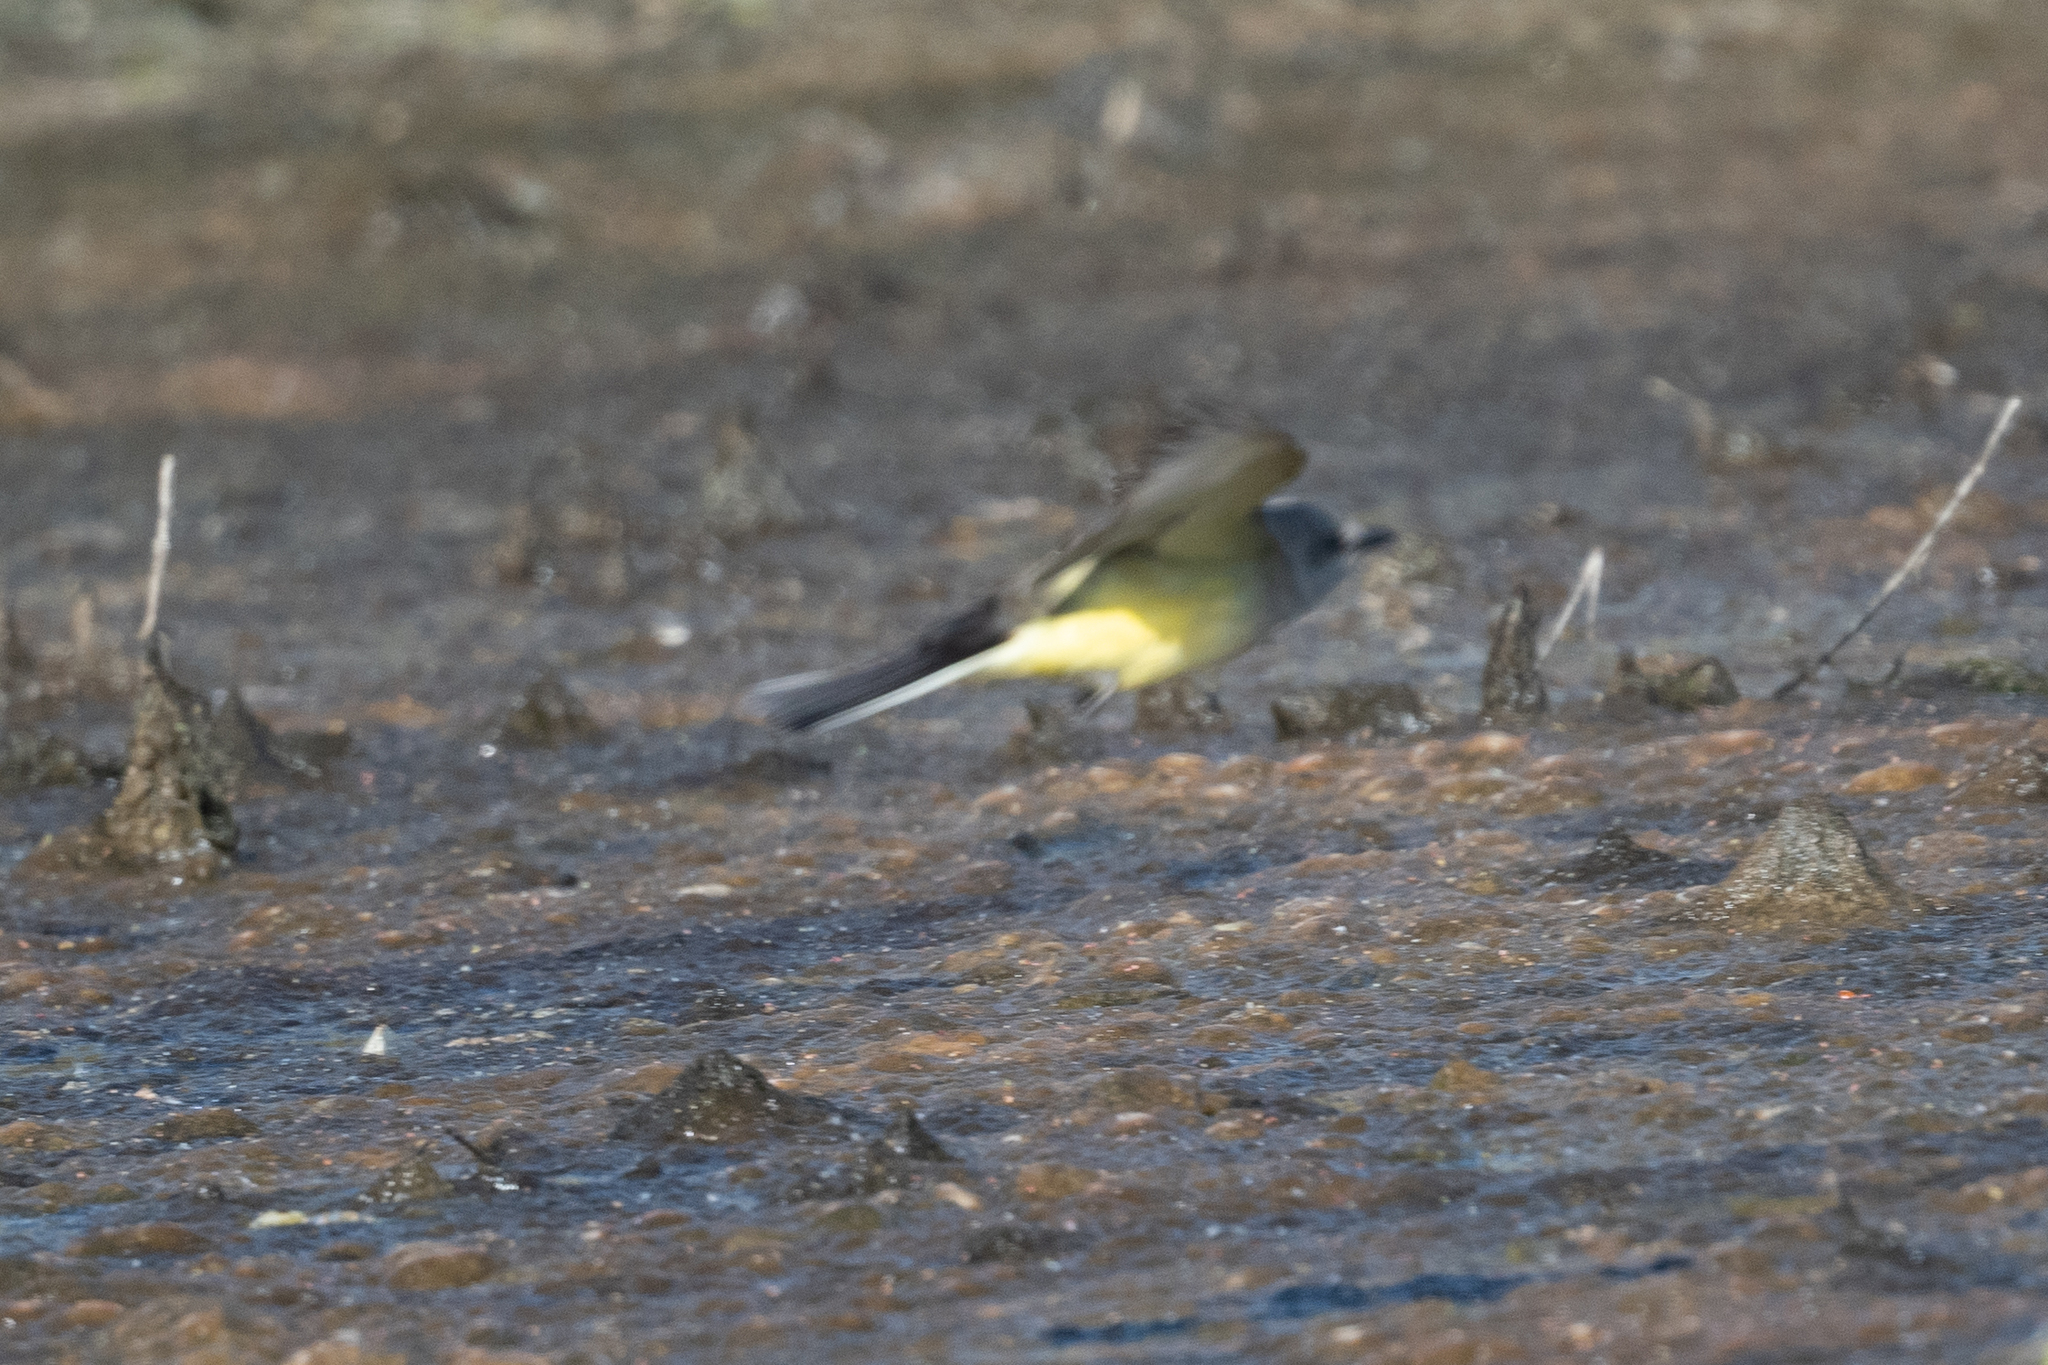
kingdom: Animalia
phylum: Chordata
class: Aves
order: Passeriformes
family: Tyrannidae
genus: Tyrannus
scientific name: Tyrannus verticalis
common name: Western kingbird
